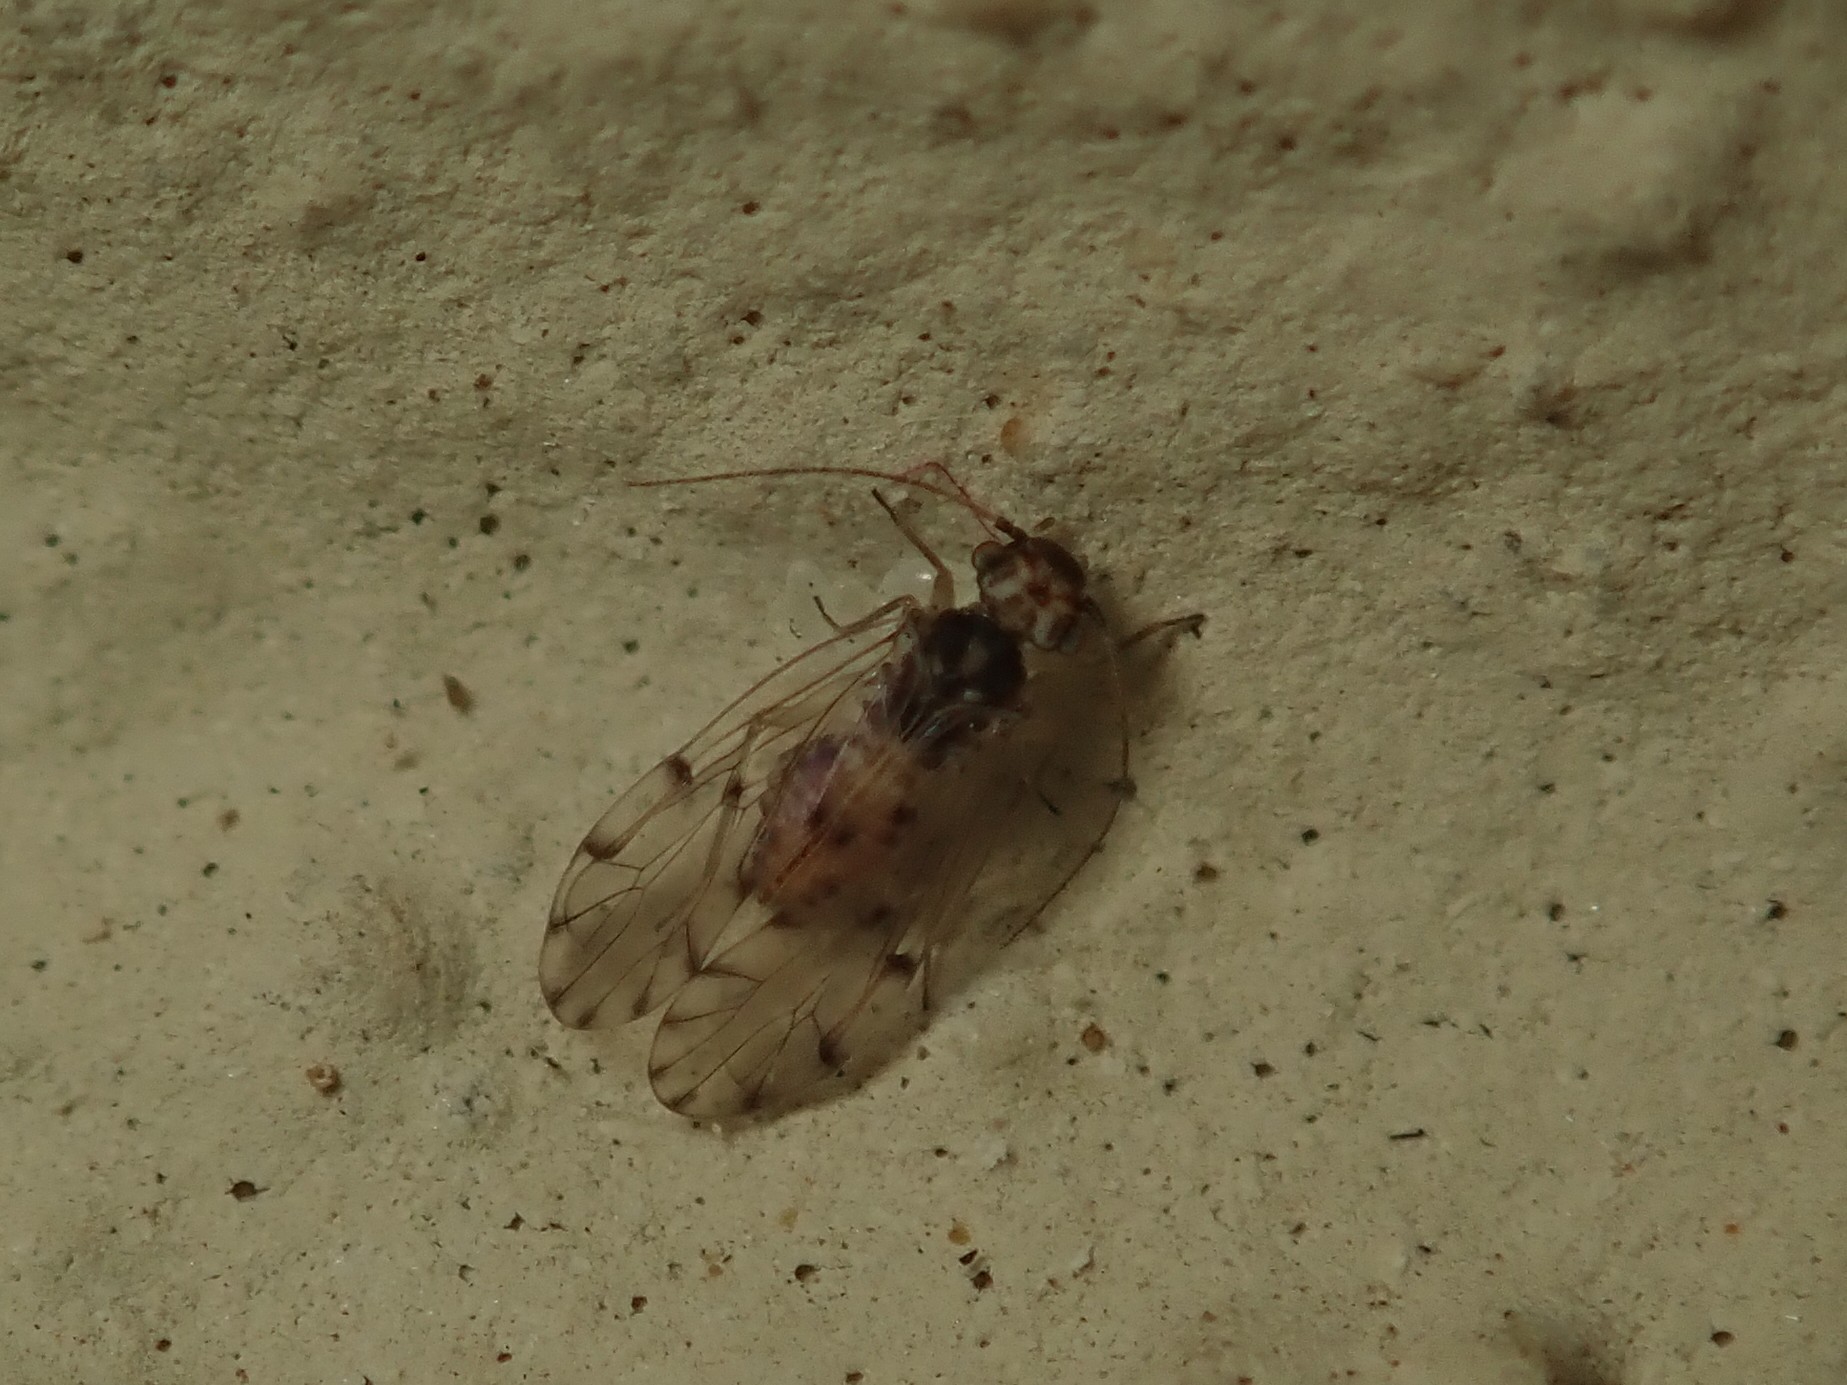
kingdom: Animalia
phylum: Arthropoda
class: Insecta
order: Psocodea
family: Ectopsocidae
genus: Ectopsocus
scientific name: Ectopsocus petersi
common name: Medium-sized bark louse
